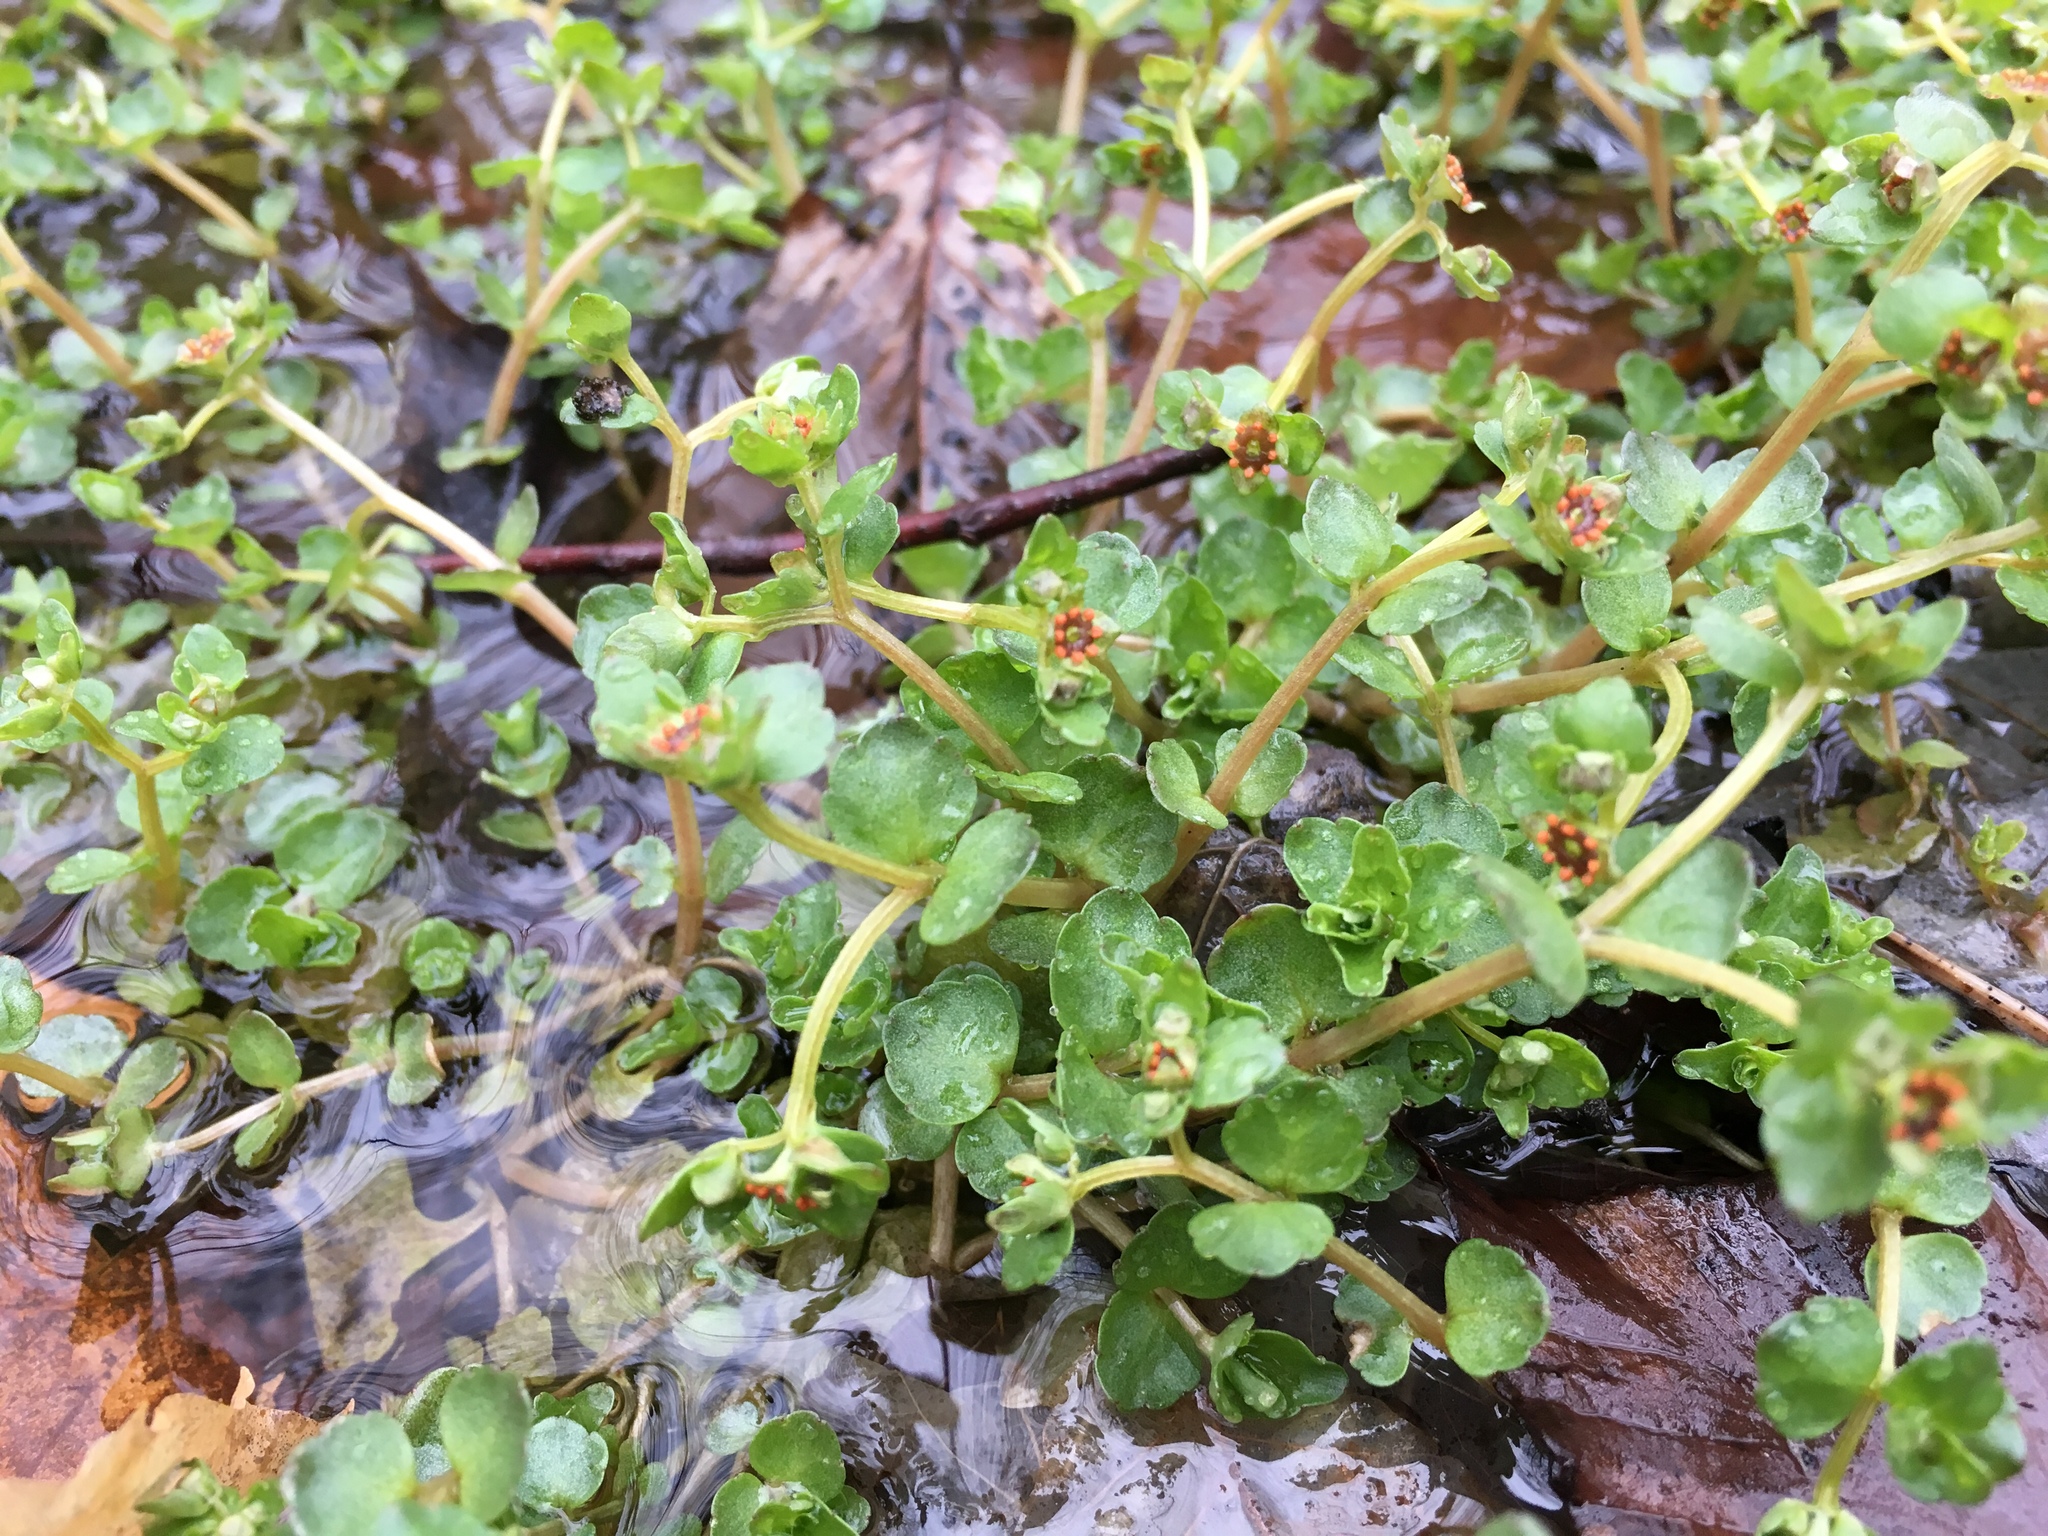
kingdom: Plantae
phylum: Tracheophyta
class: Magnoliopsida
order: Saxifragales
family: Saxifragaceae
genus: Chrysosplenium
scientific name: Chrysosplenium americanum
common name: American golden-saxifrage
